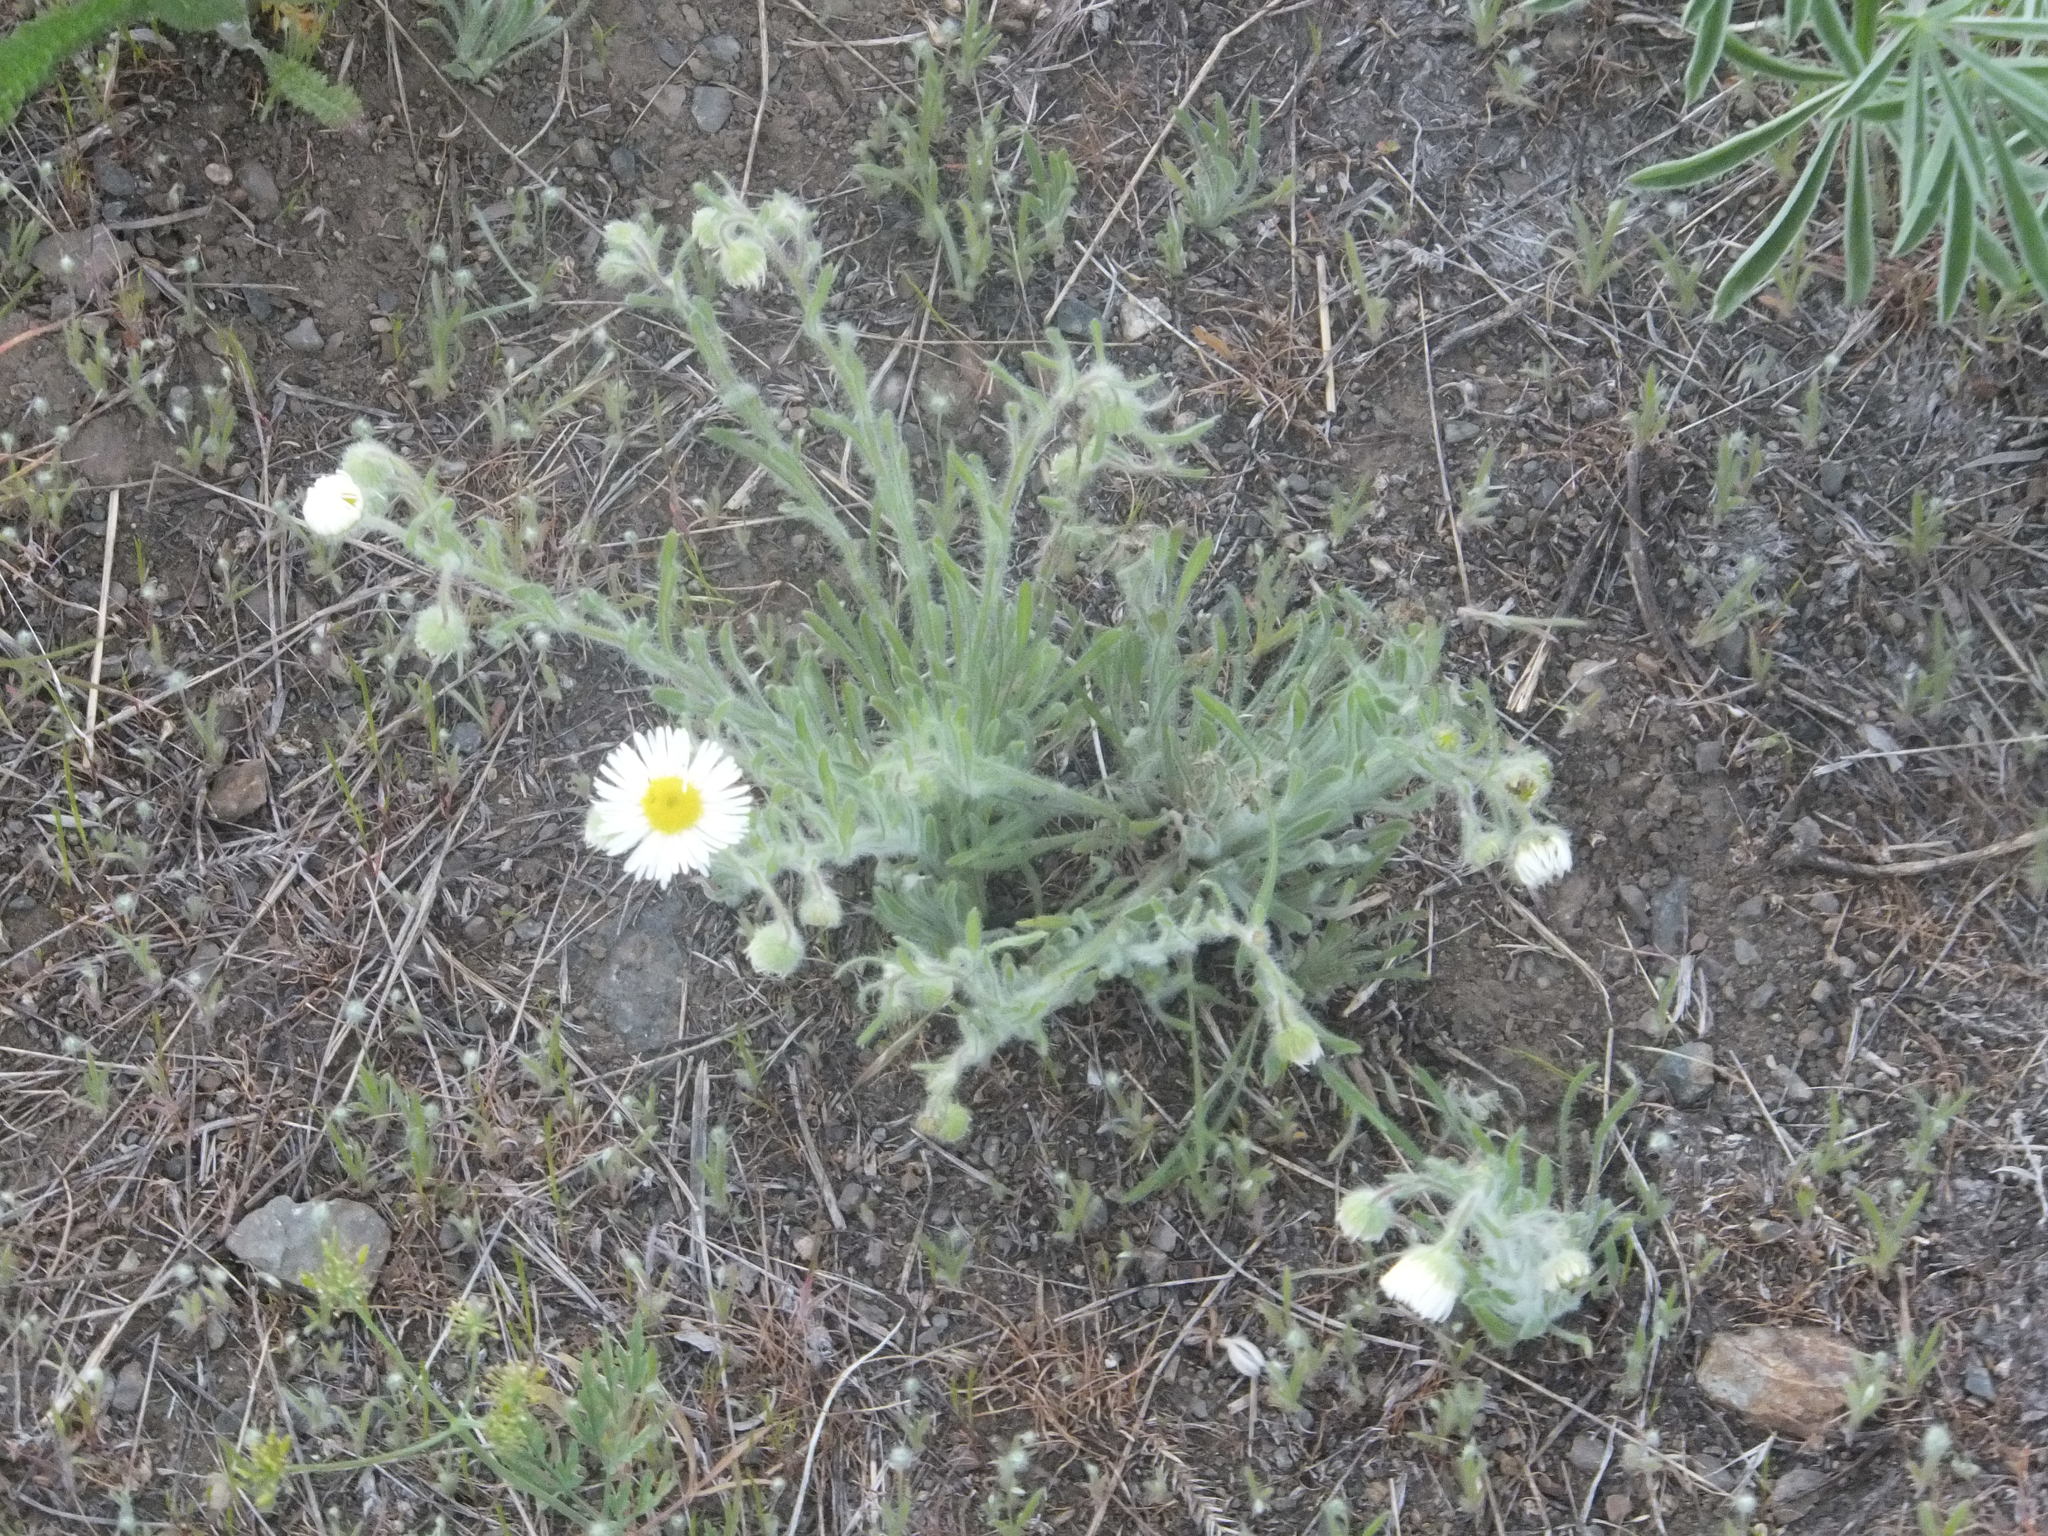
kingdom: Plantae
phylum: Tracheophyta
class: Magnoliopsida
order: Asterales
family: Asteraceae
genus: Erigeron
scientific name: Erigeron pumilus
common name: Shaggy fleabane
